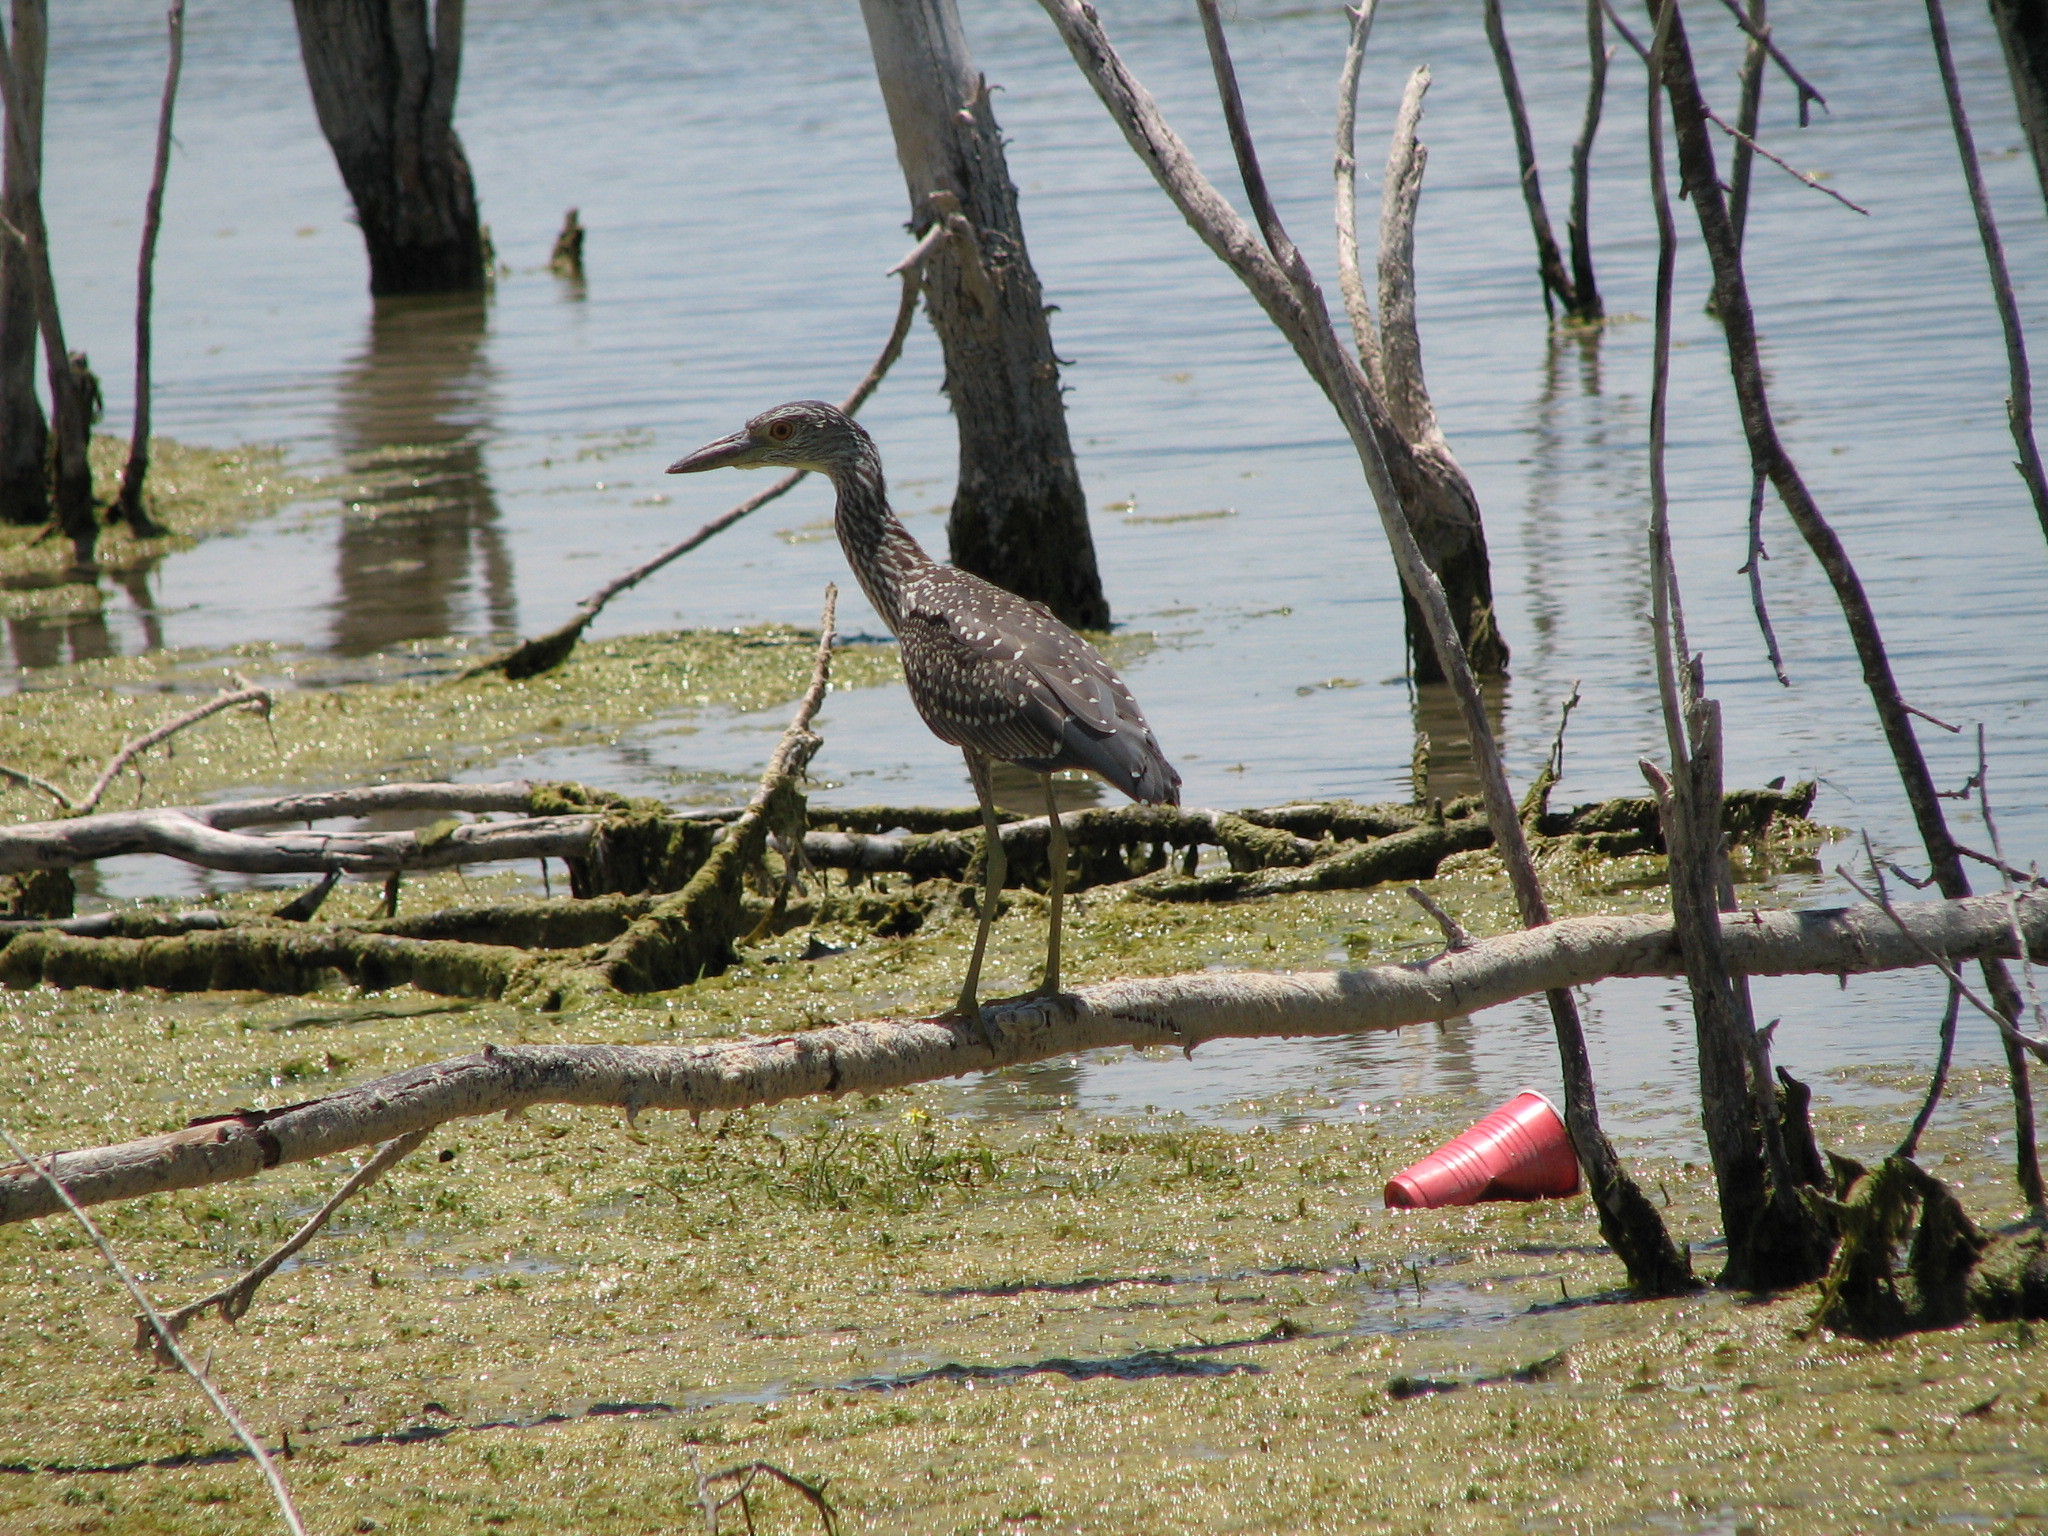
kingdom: Animalia
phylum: Chordata
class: Aves
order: Pelecaniformes
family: Ardeidae
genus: Nyctanassa
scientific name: Nyctanassa violacea
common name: Yellow-crowned night heron
